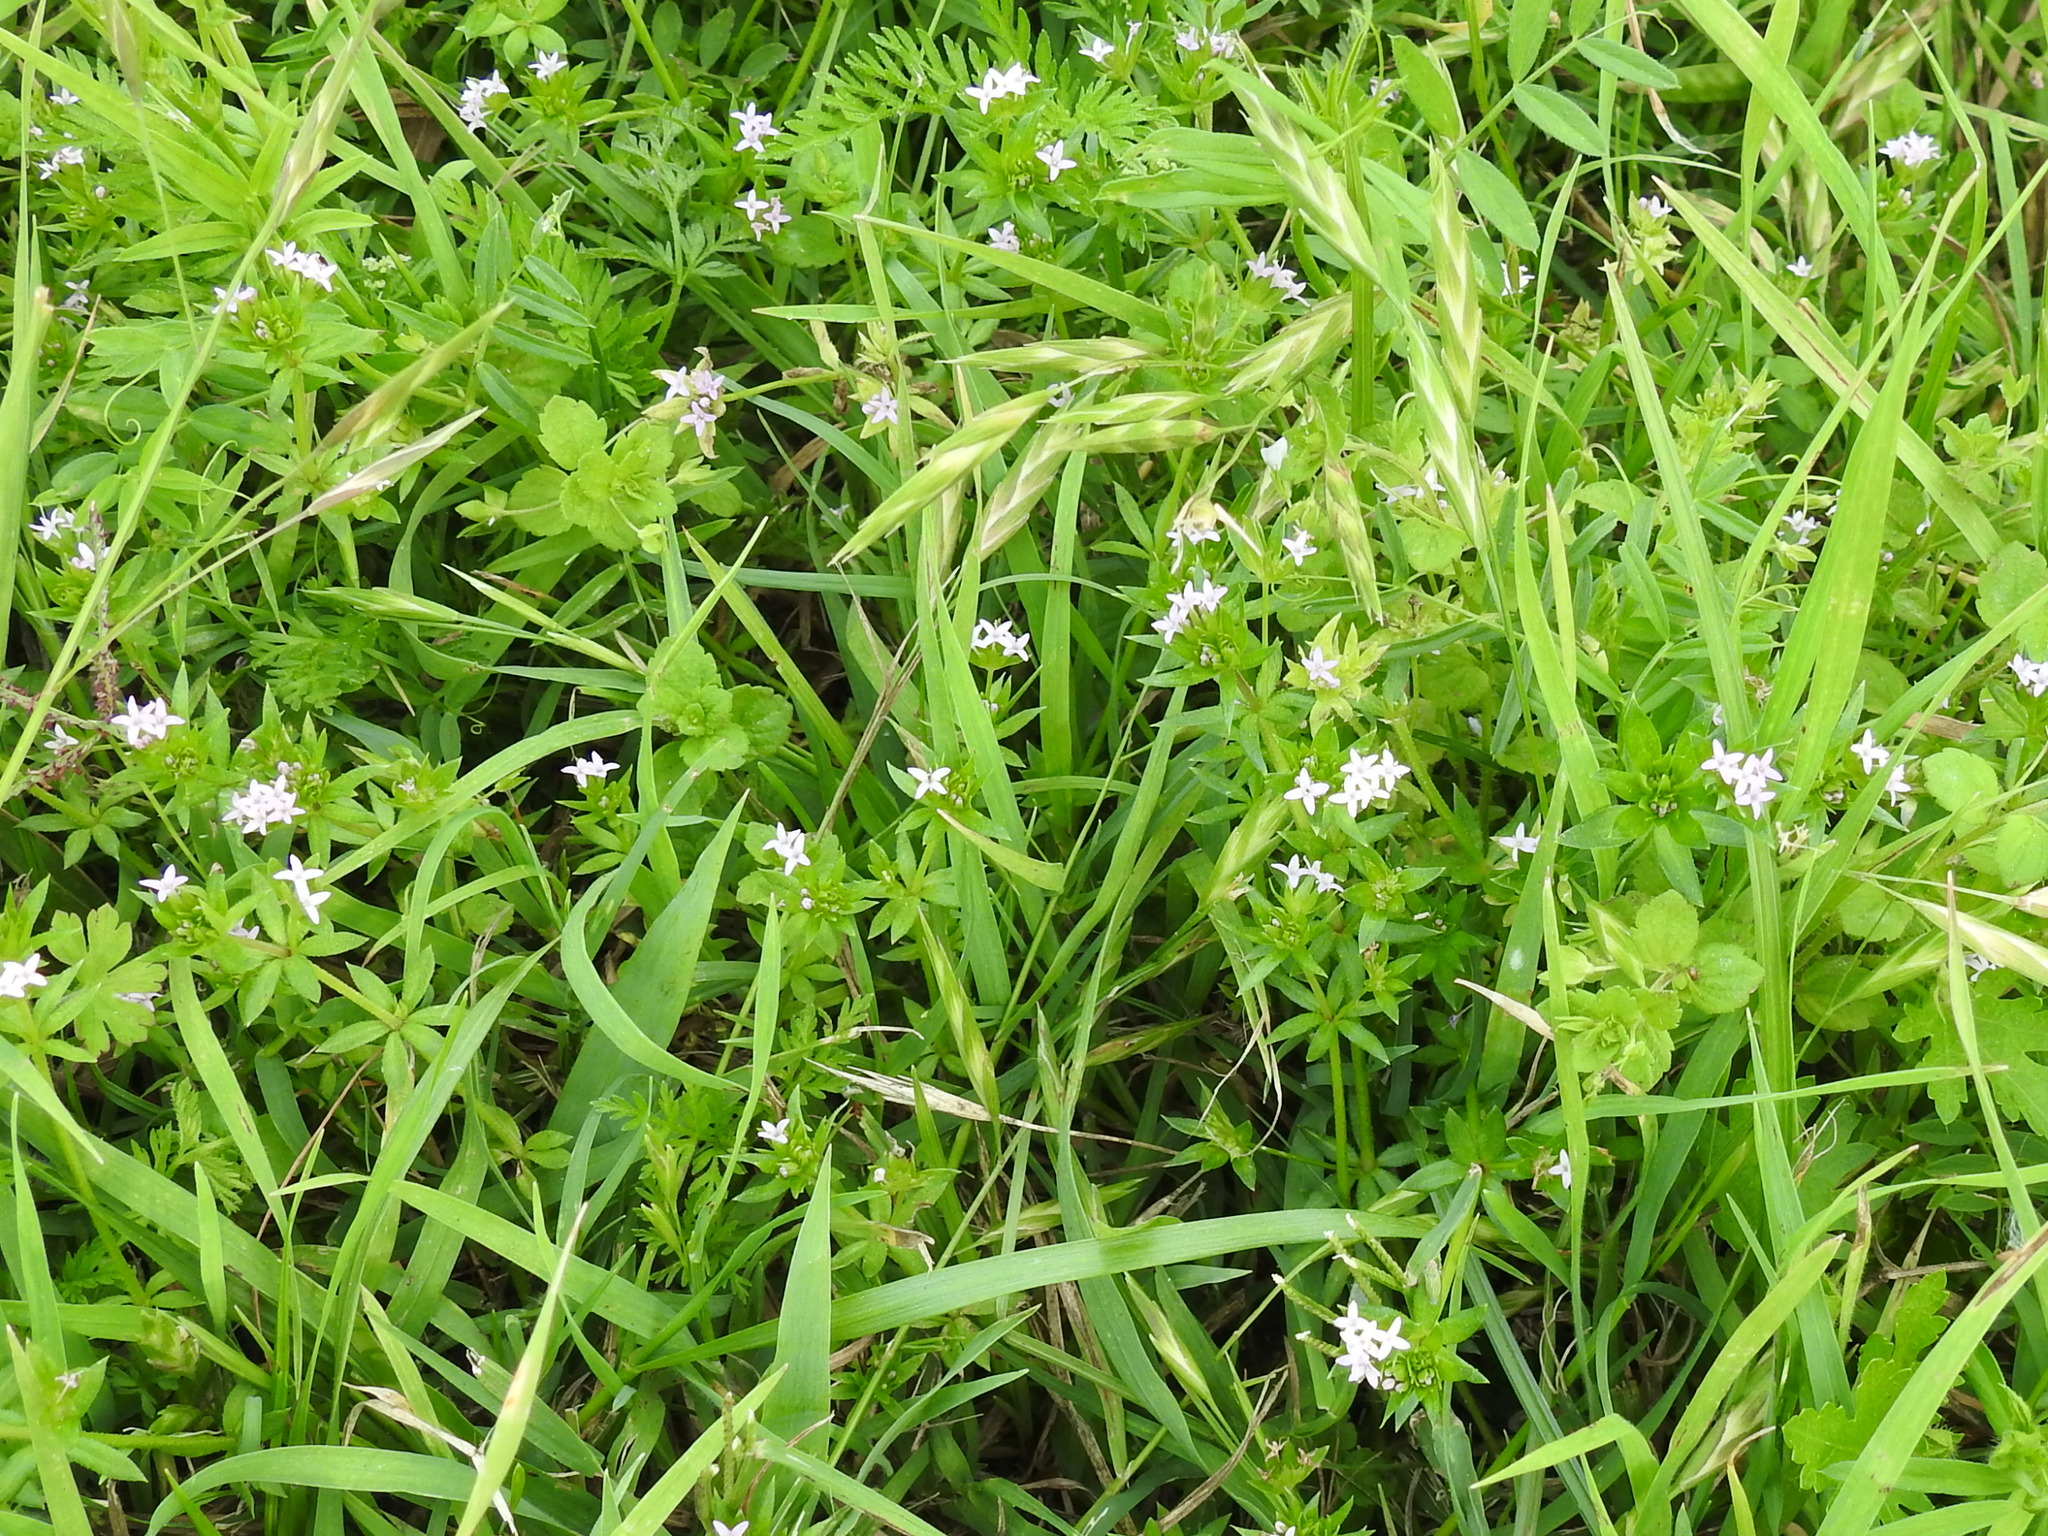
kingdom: Plantae
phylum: Tracheophyta
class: Magnoliopsida
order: Gentianales
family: Rubiaceae
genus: Sherardia
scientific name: Sherardia arvensis
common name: Field madder
